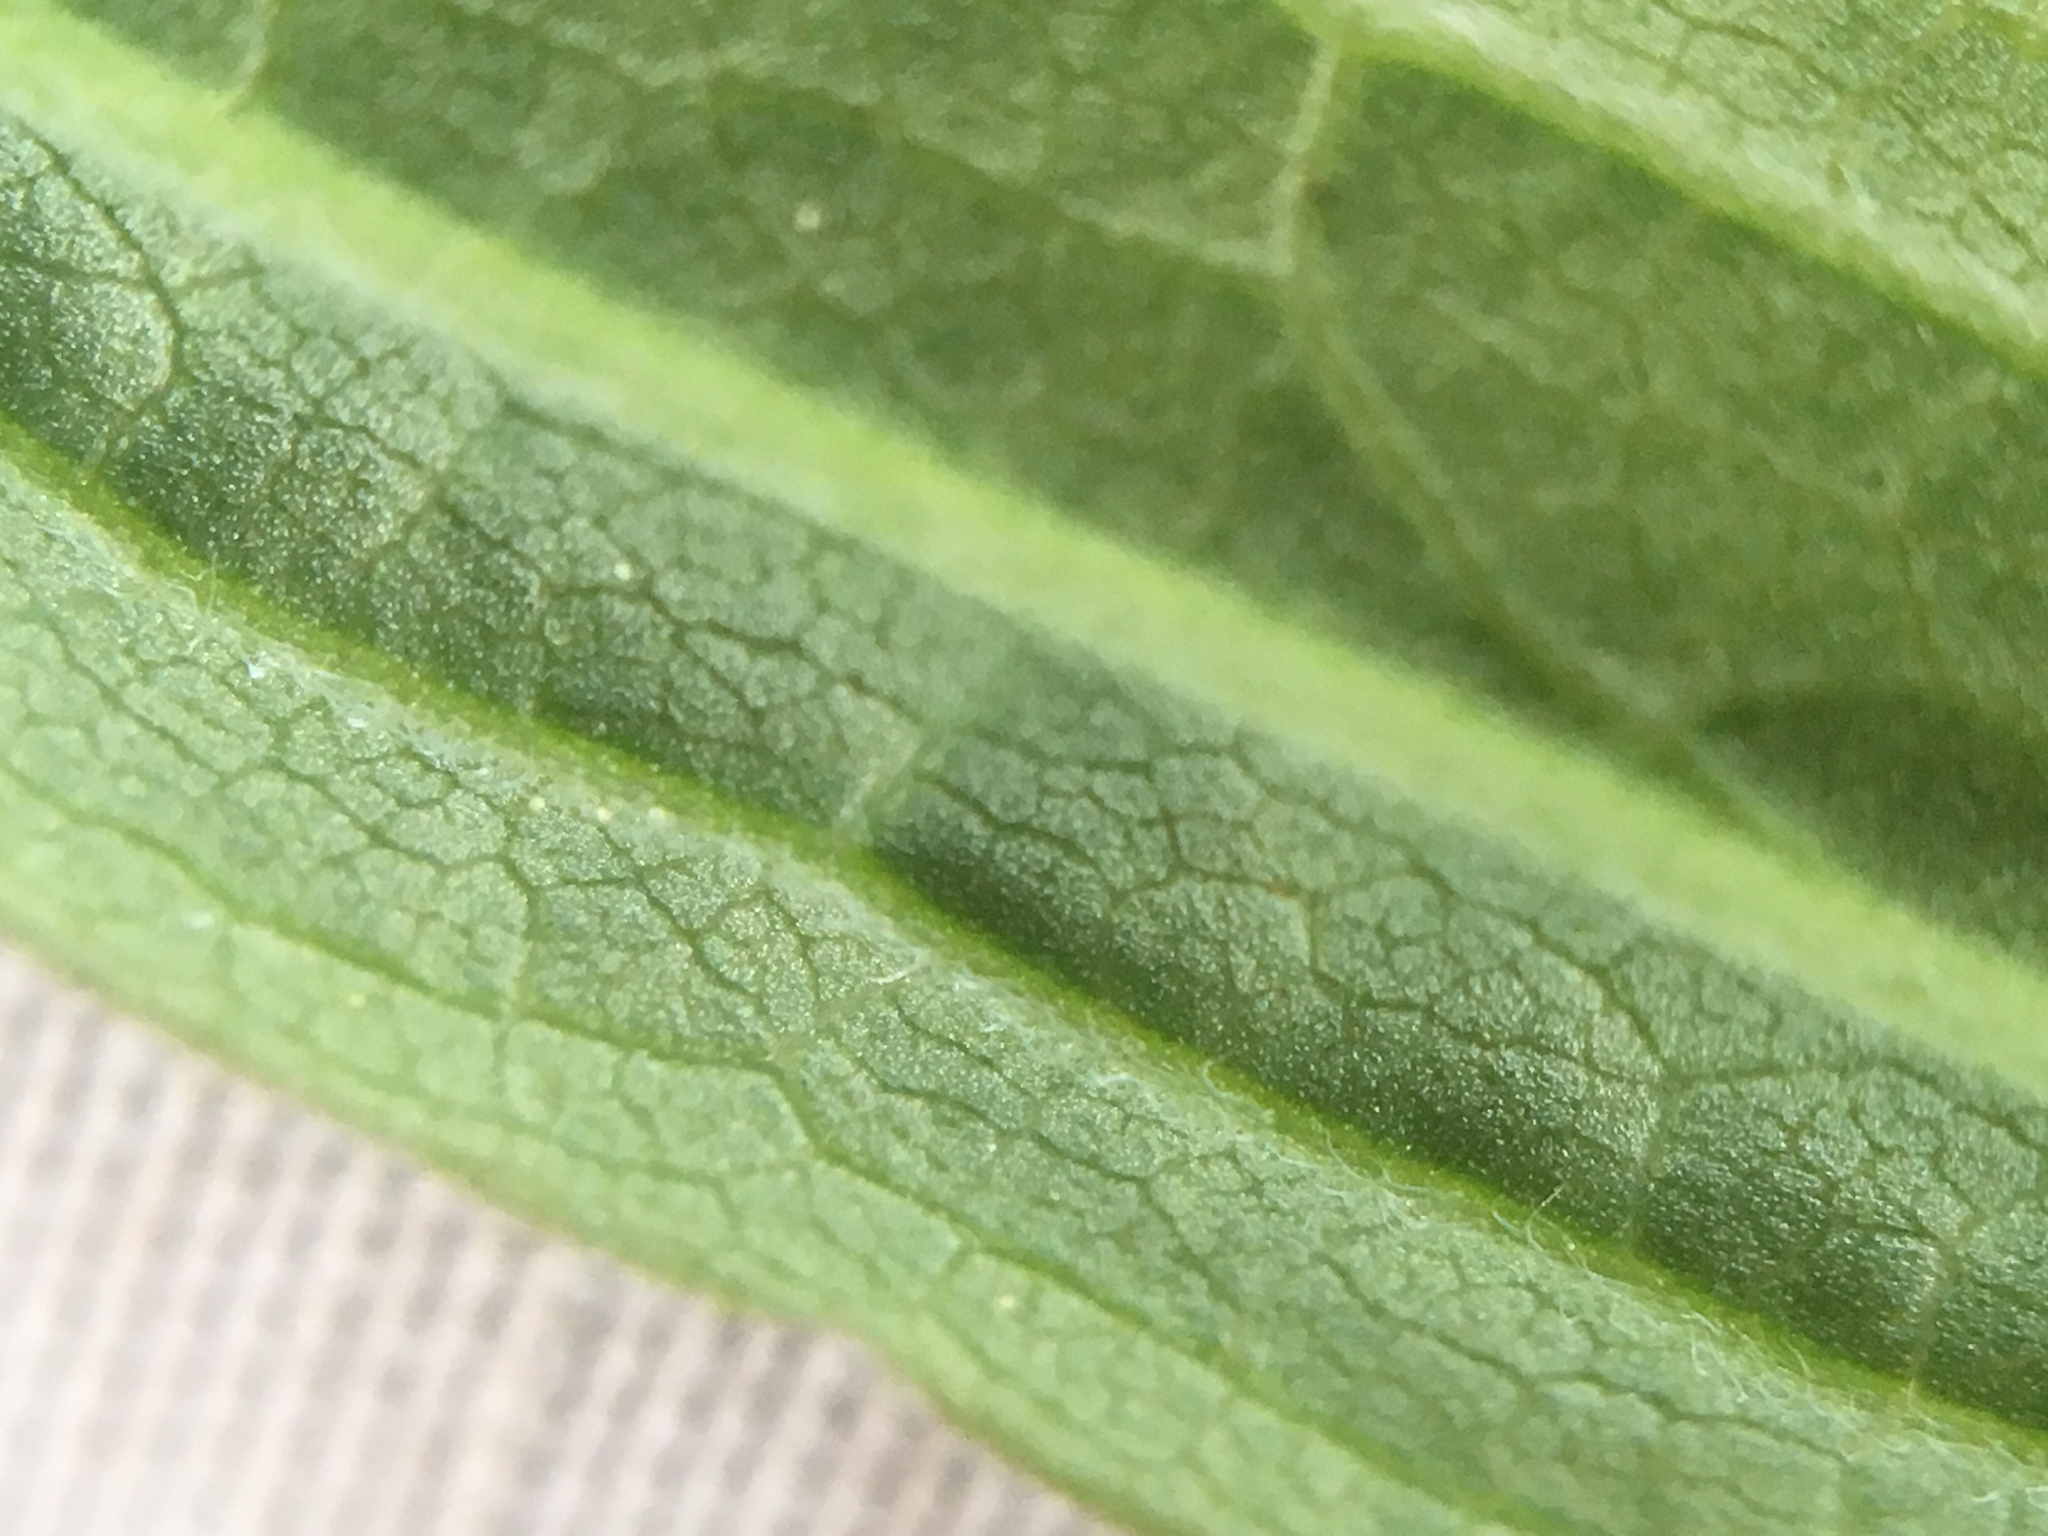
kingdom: Plantae
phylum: Tracheophyta
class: Magnoliopsida
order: Asterales
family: Asteraceae
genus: Solidago
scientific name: Solidago canadensis
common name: Canada goldenrod
